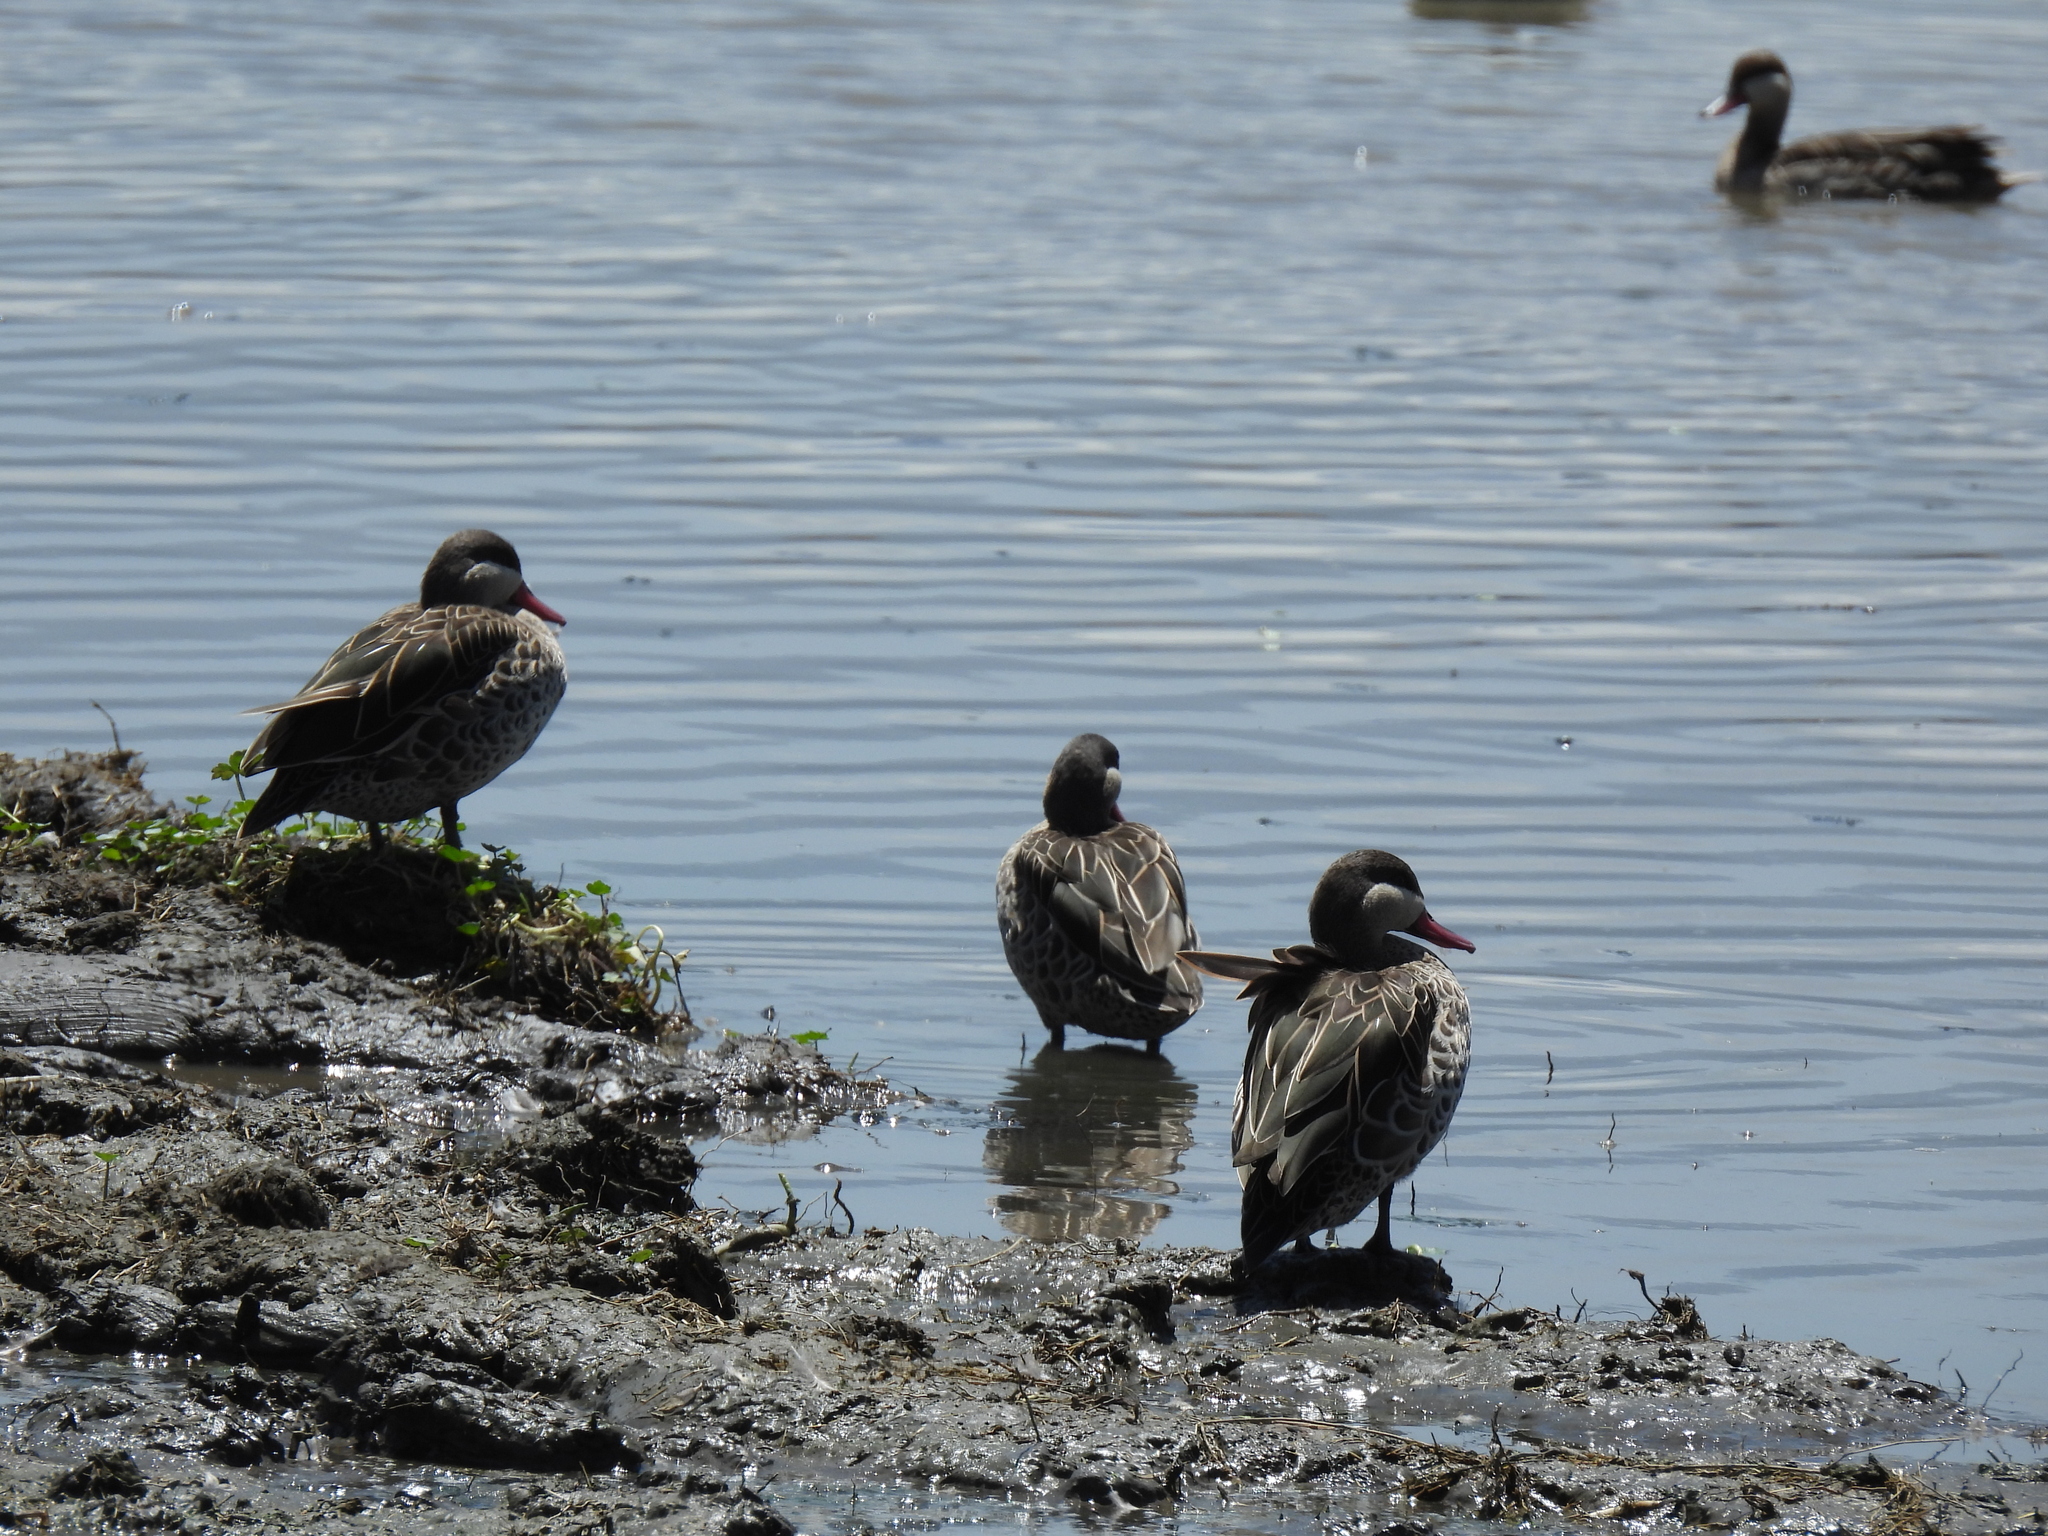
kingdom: Animalia
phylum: Chordata
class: Aves
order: Anseriformes
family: Anatidae
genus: Anas
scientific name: Anas erythrorhyncha
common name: Red-billed teal
